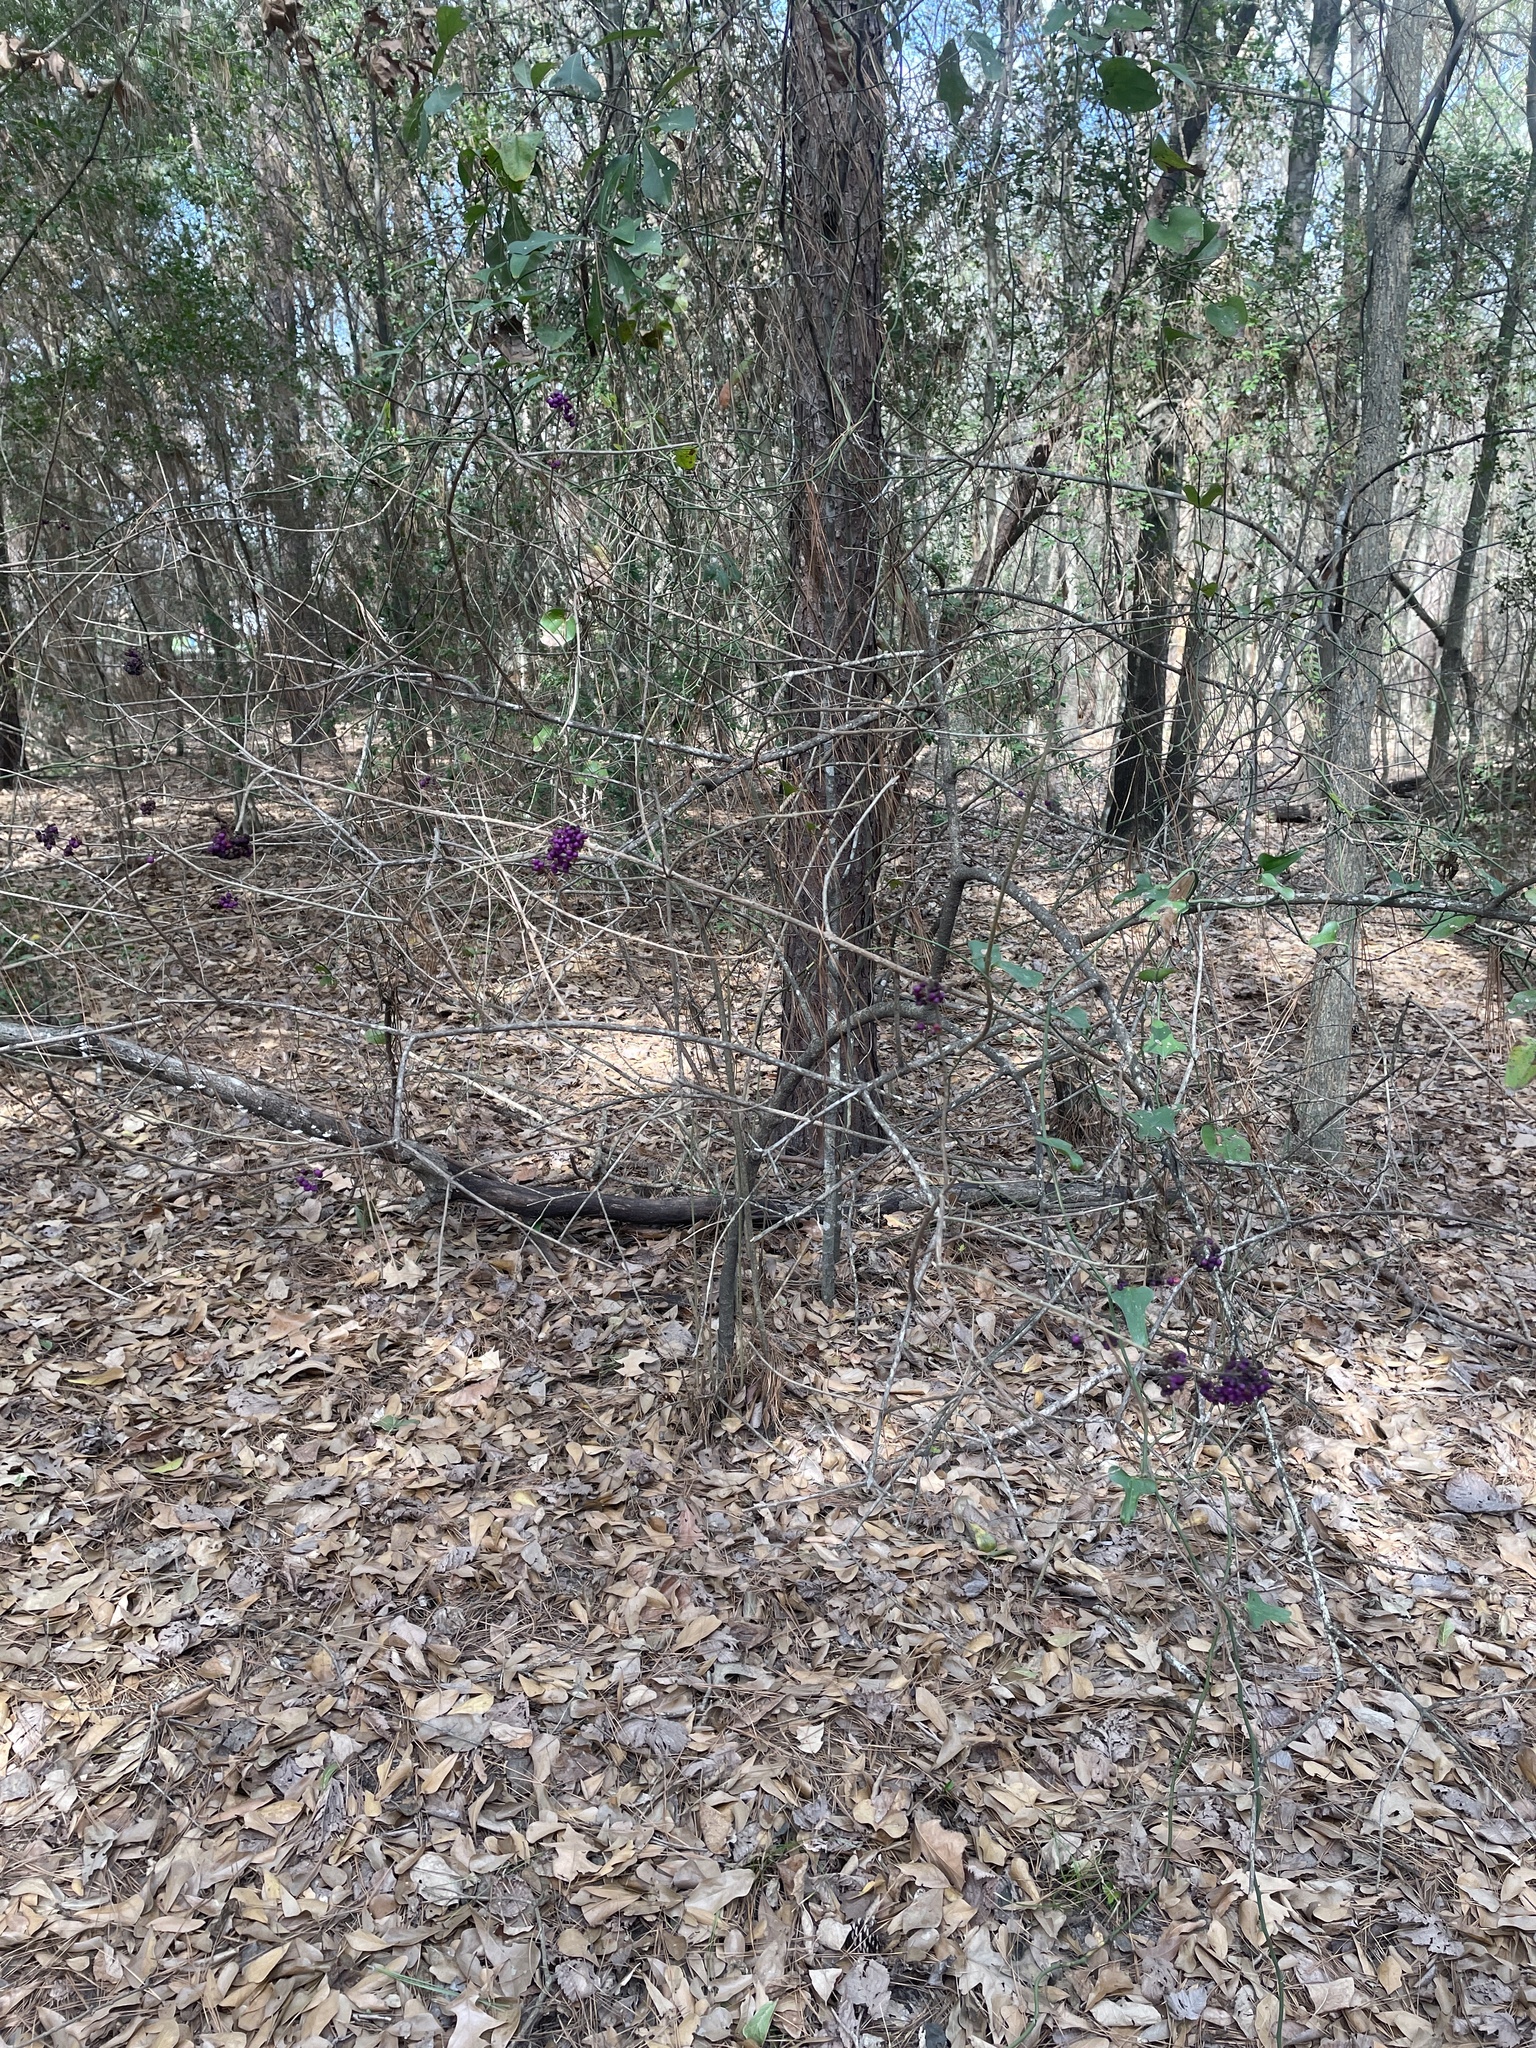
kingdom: Plantae
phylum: Tracheophyta
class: Magnoliopsida
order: Lamiales
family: Lamiaceae
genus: Callicarpa
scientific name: Callicarpa americana
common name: American beautyberry
